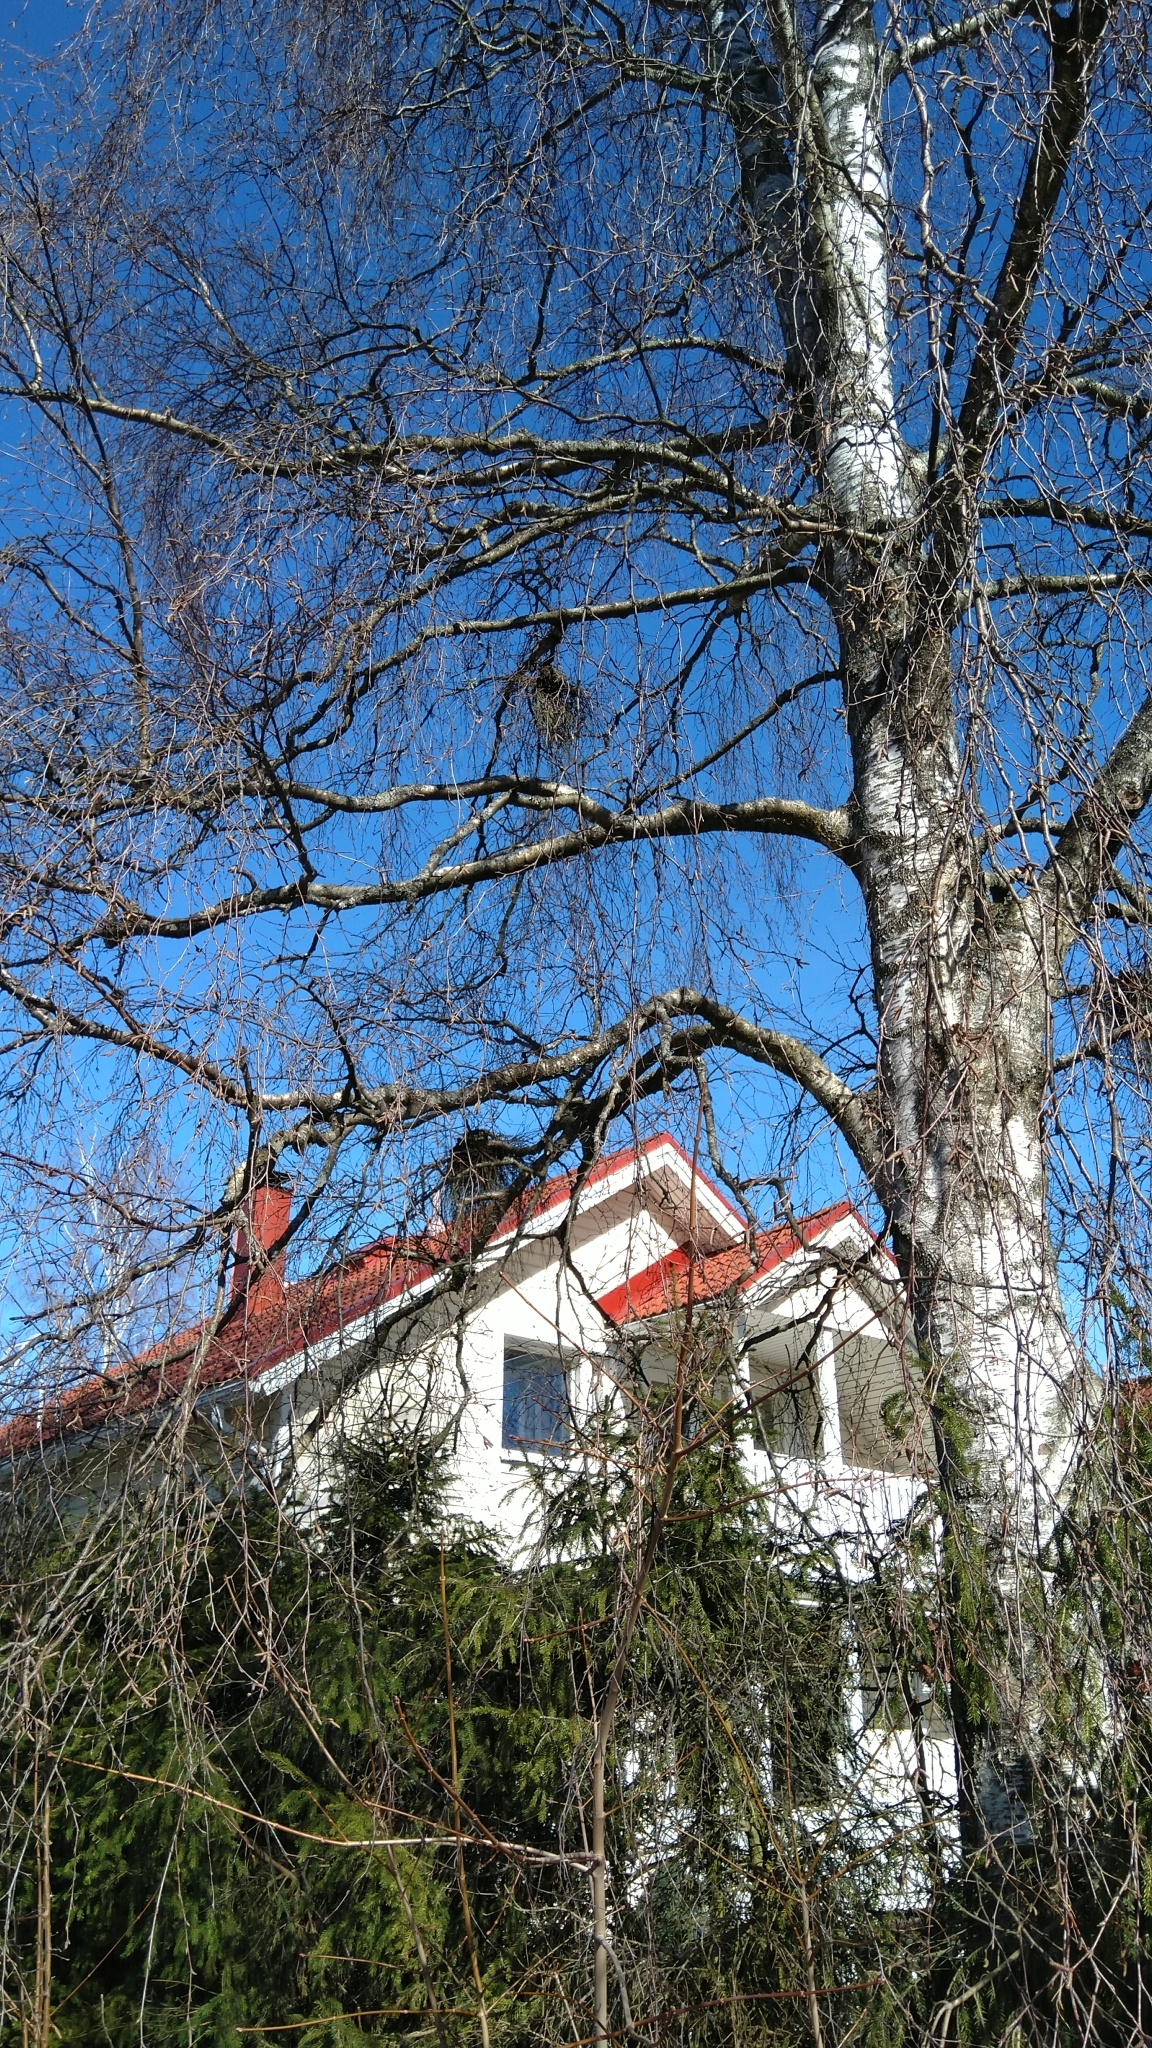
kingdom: Fungi
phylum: Ascomycota
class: Taphrinomycetes
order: Taphrinales
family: Taphrinaceae
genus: Taphrina
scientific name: Taphrina betulina
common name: Birch besom
